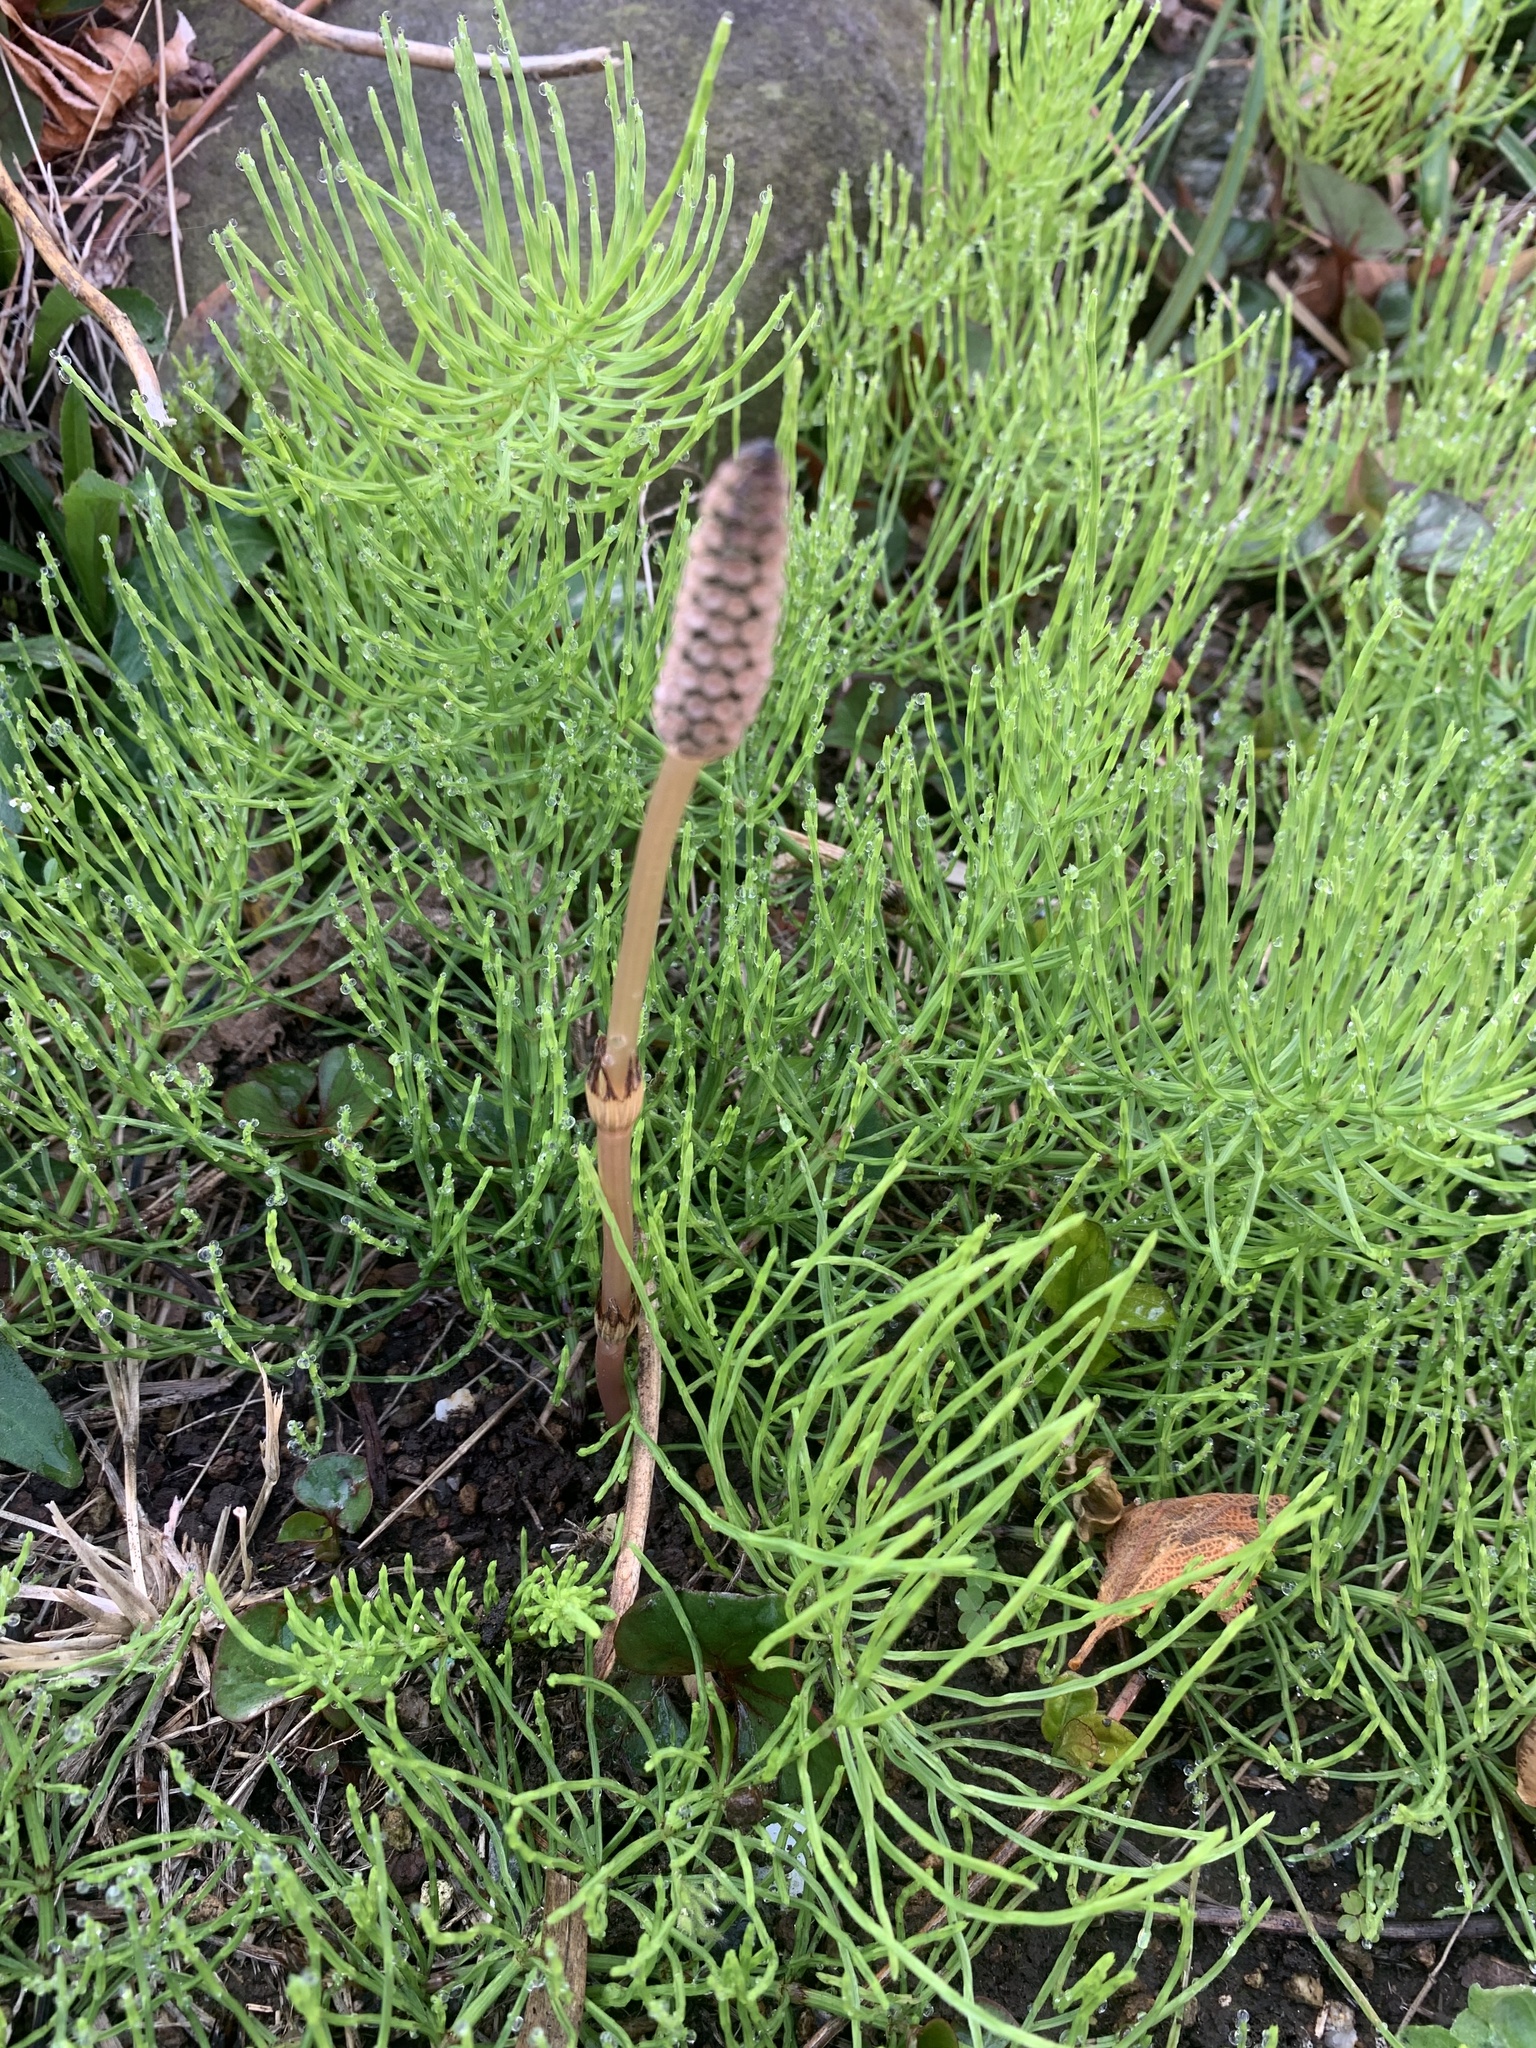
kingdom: Plantae
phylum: Tracheophyta
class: Polypodiopsida
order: Equisetales
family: Equisetaceae
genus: Equisetum
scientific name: Equisetum arvense
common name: Field horsetail
